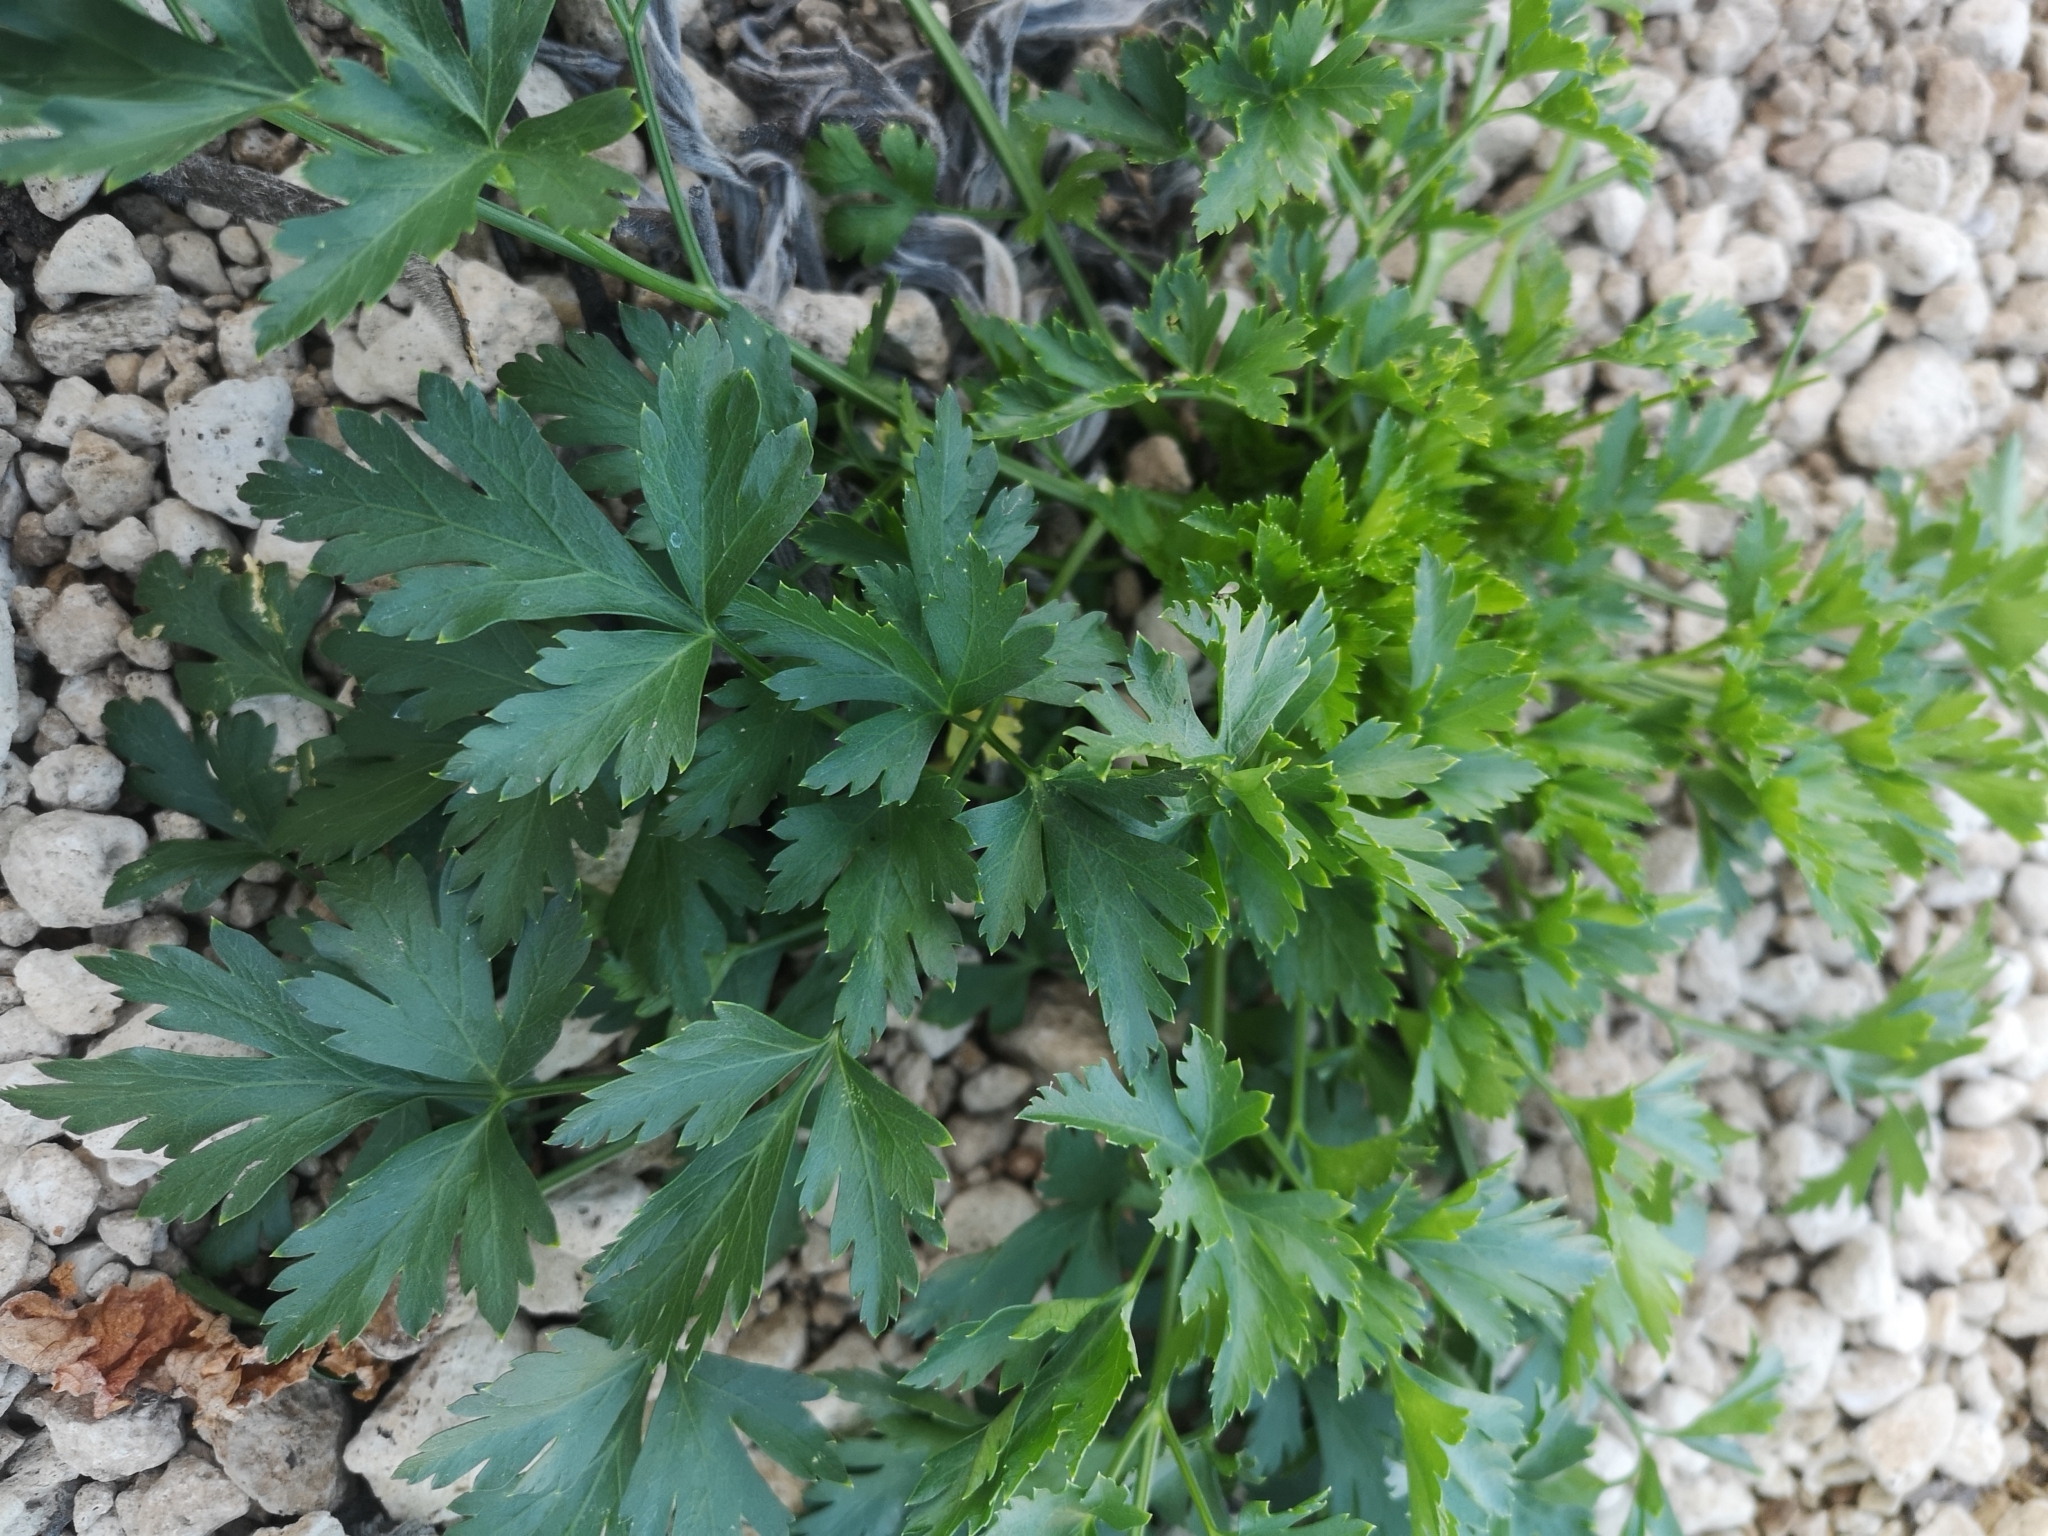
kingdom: Plantae
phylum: Tracheophyta
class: Magnoliopsida
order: Apiales
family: Apiaceae
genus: Petroselinum
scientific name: Petroselinum crispum
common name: Parsley
